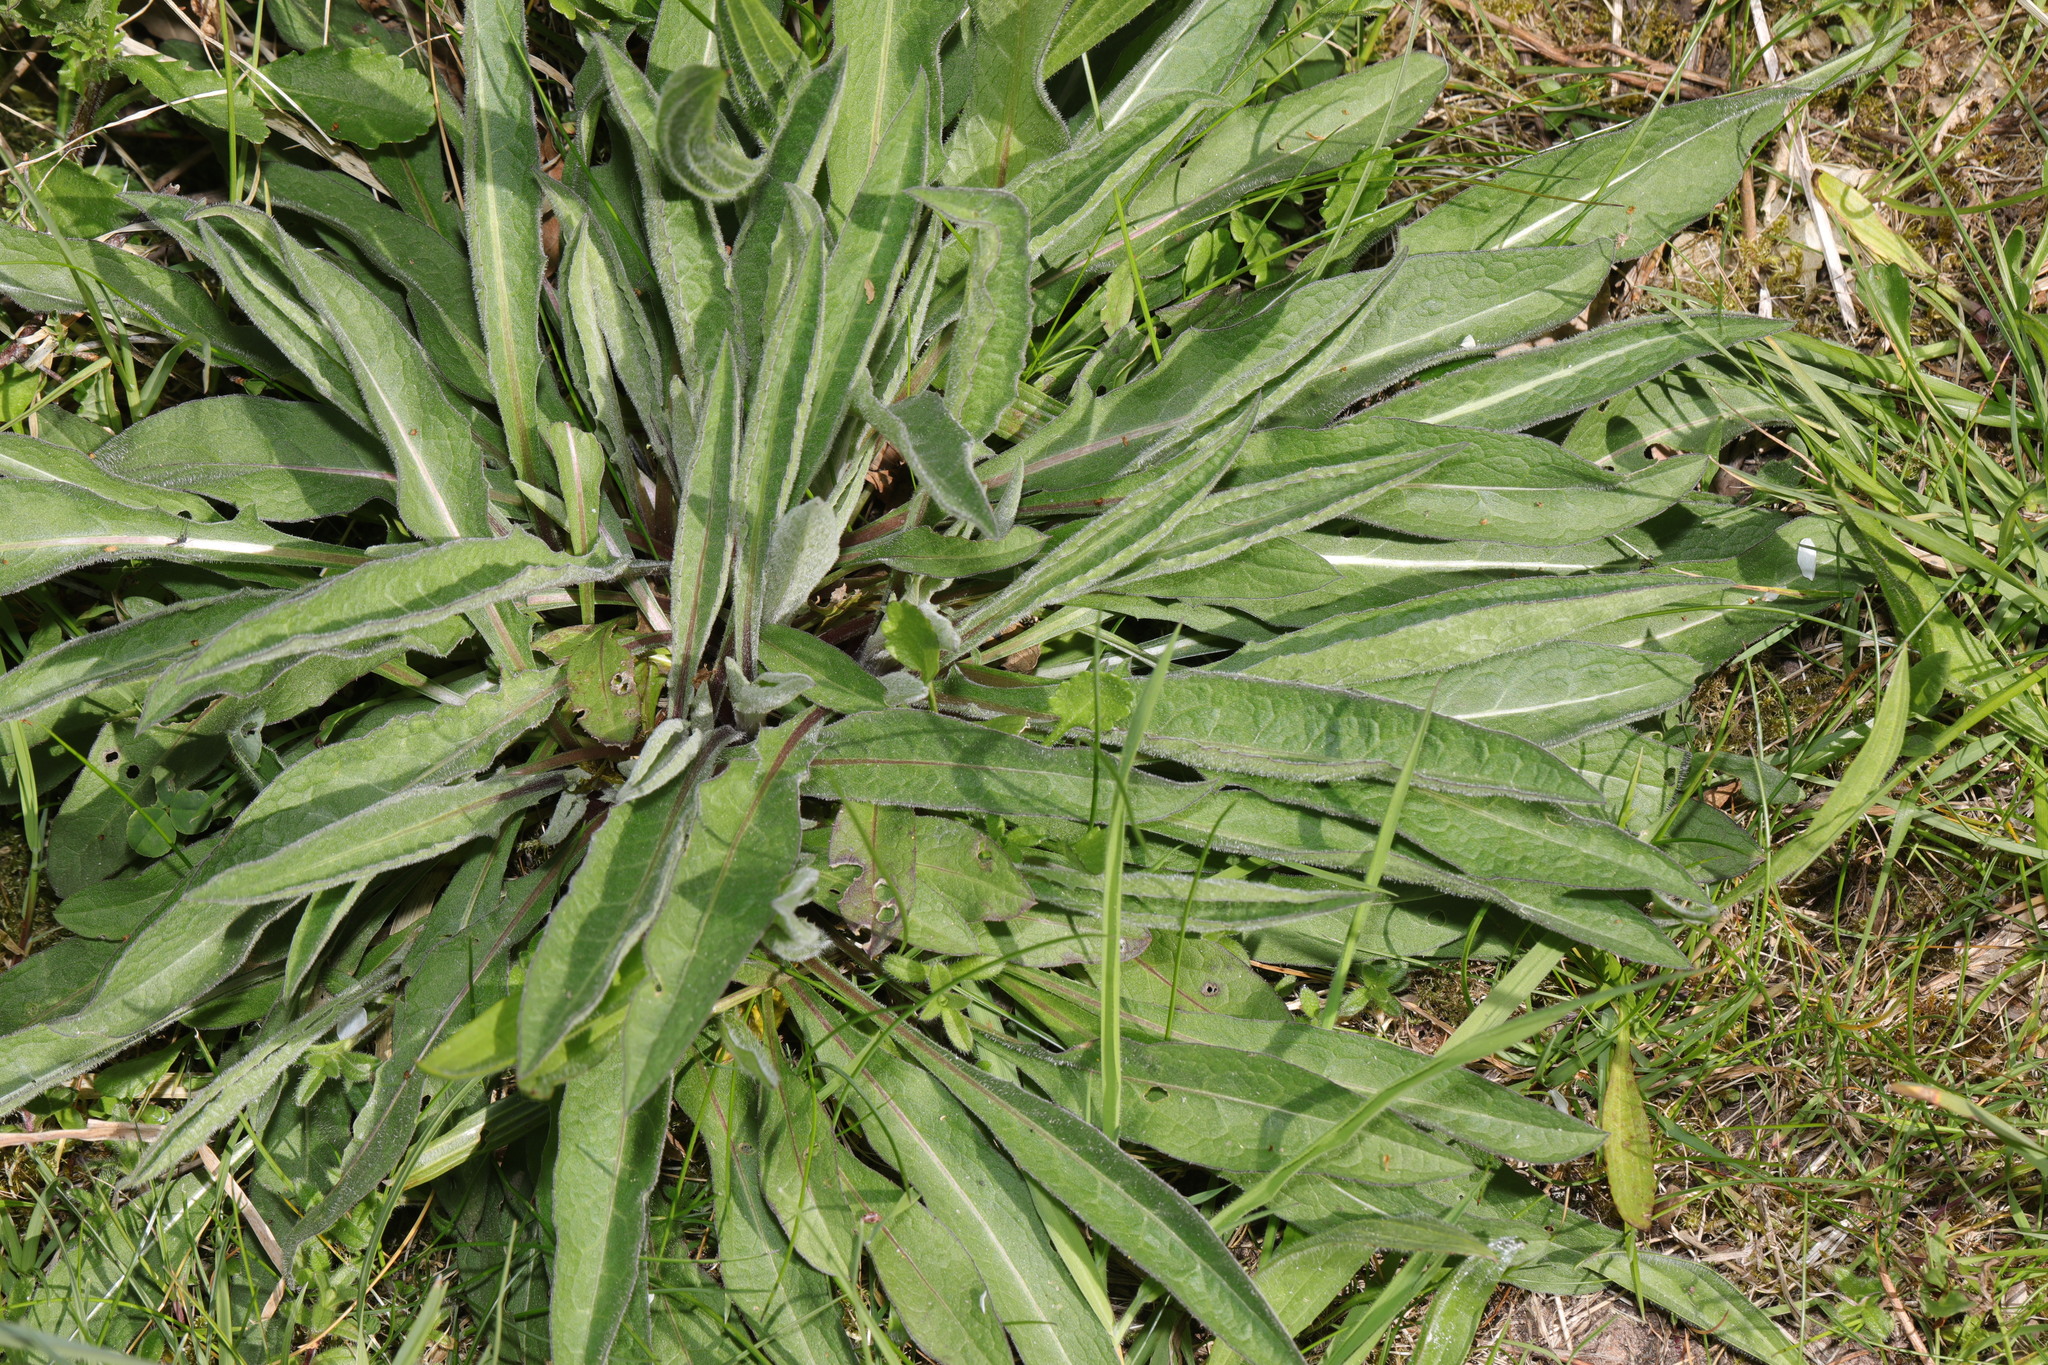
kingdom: Plantae
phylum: Tracheophyta
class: Magnoliopsida
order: Asterales
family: Asteraceae
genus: Centaurea
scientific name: Centaurea nigra
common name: Lesser knapweed
